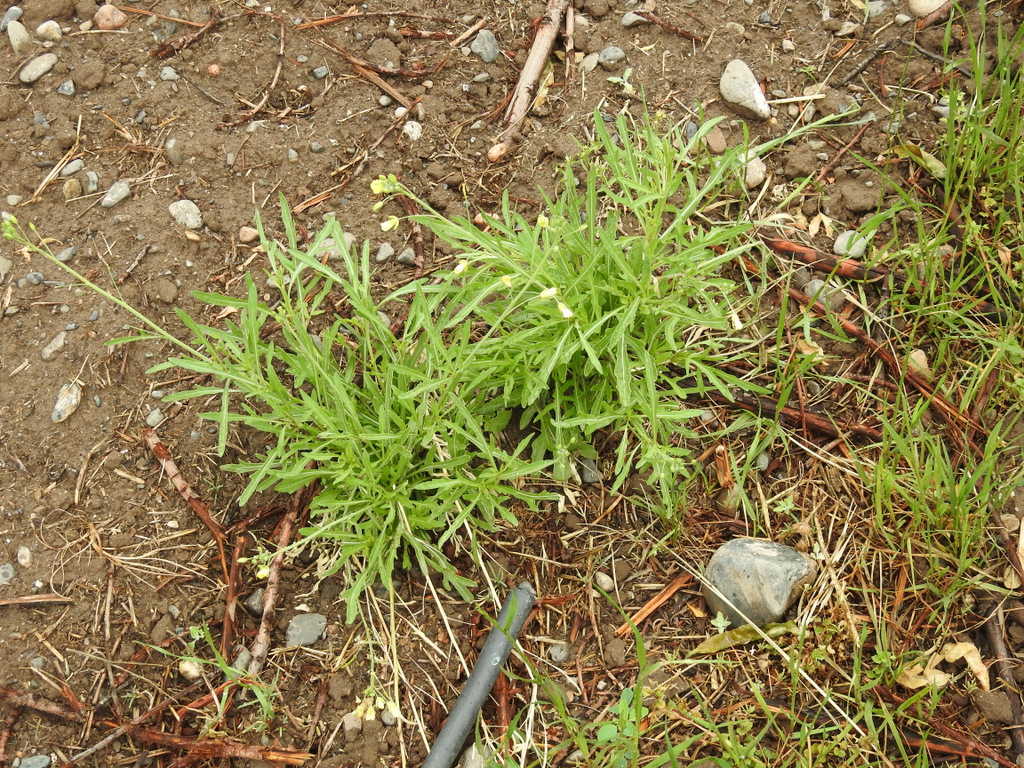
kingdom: Plantae
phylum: Tracheophyta
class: Magnoliopsida
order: Brassicales
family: Brassicaceae
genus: Diplotaxis
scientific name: Diplotaxis tenuifolia
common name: Perennial wall-rocket
